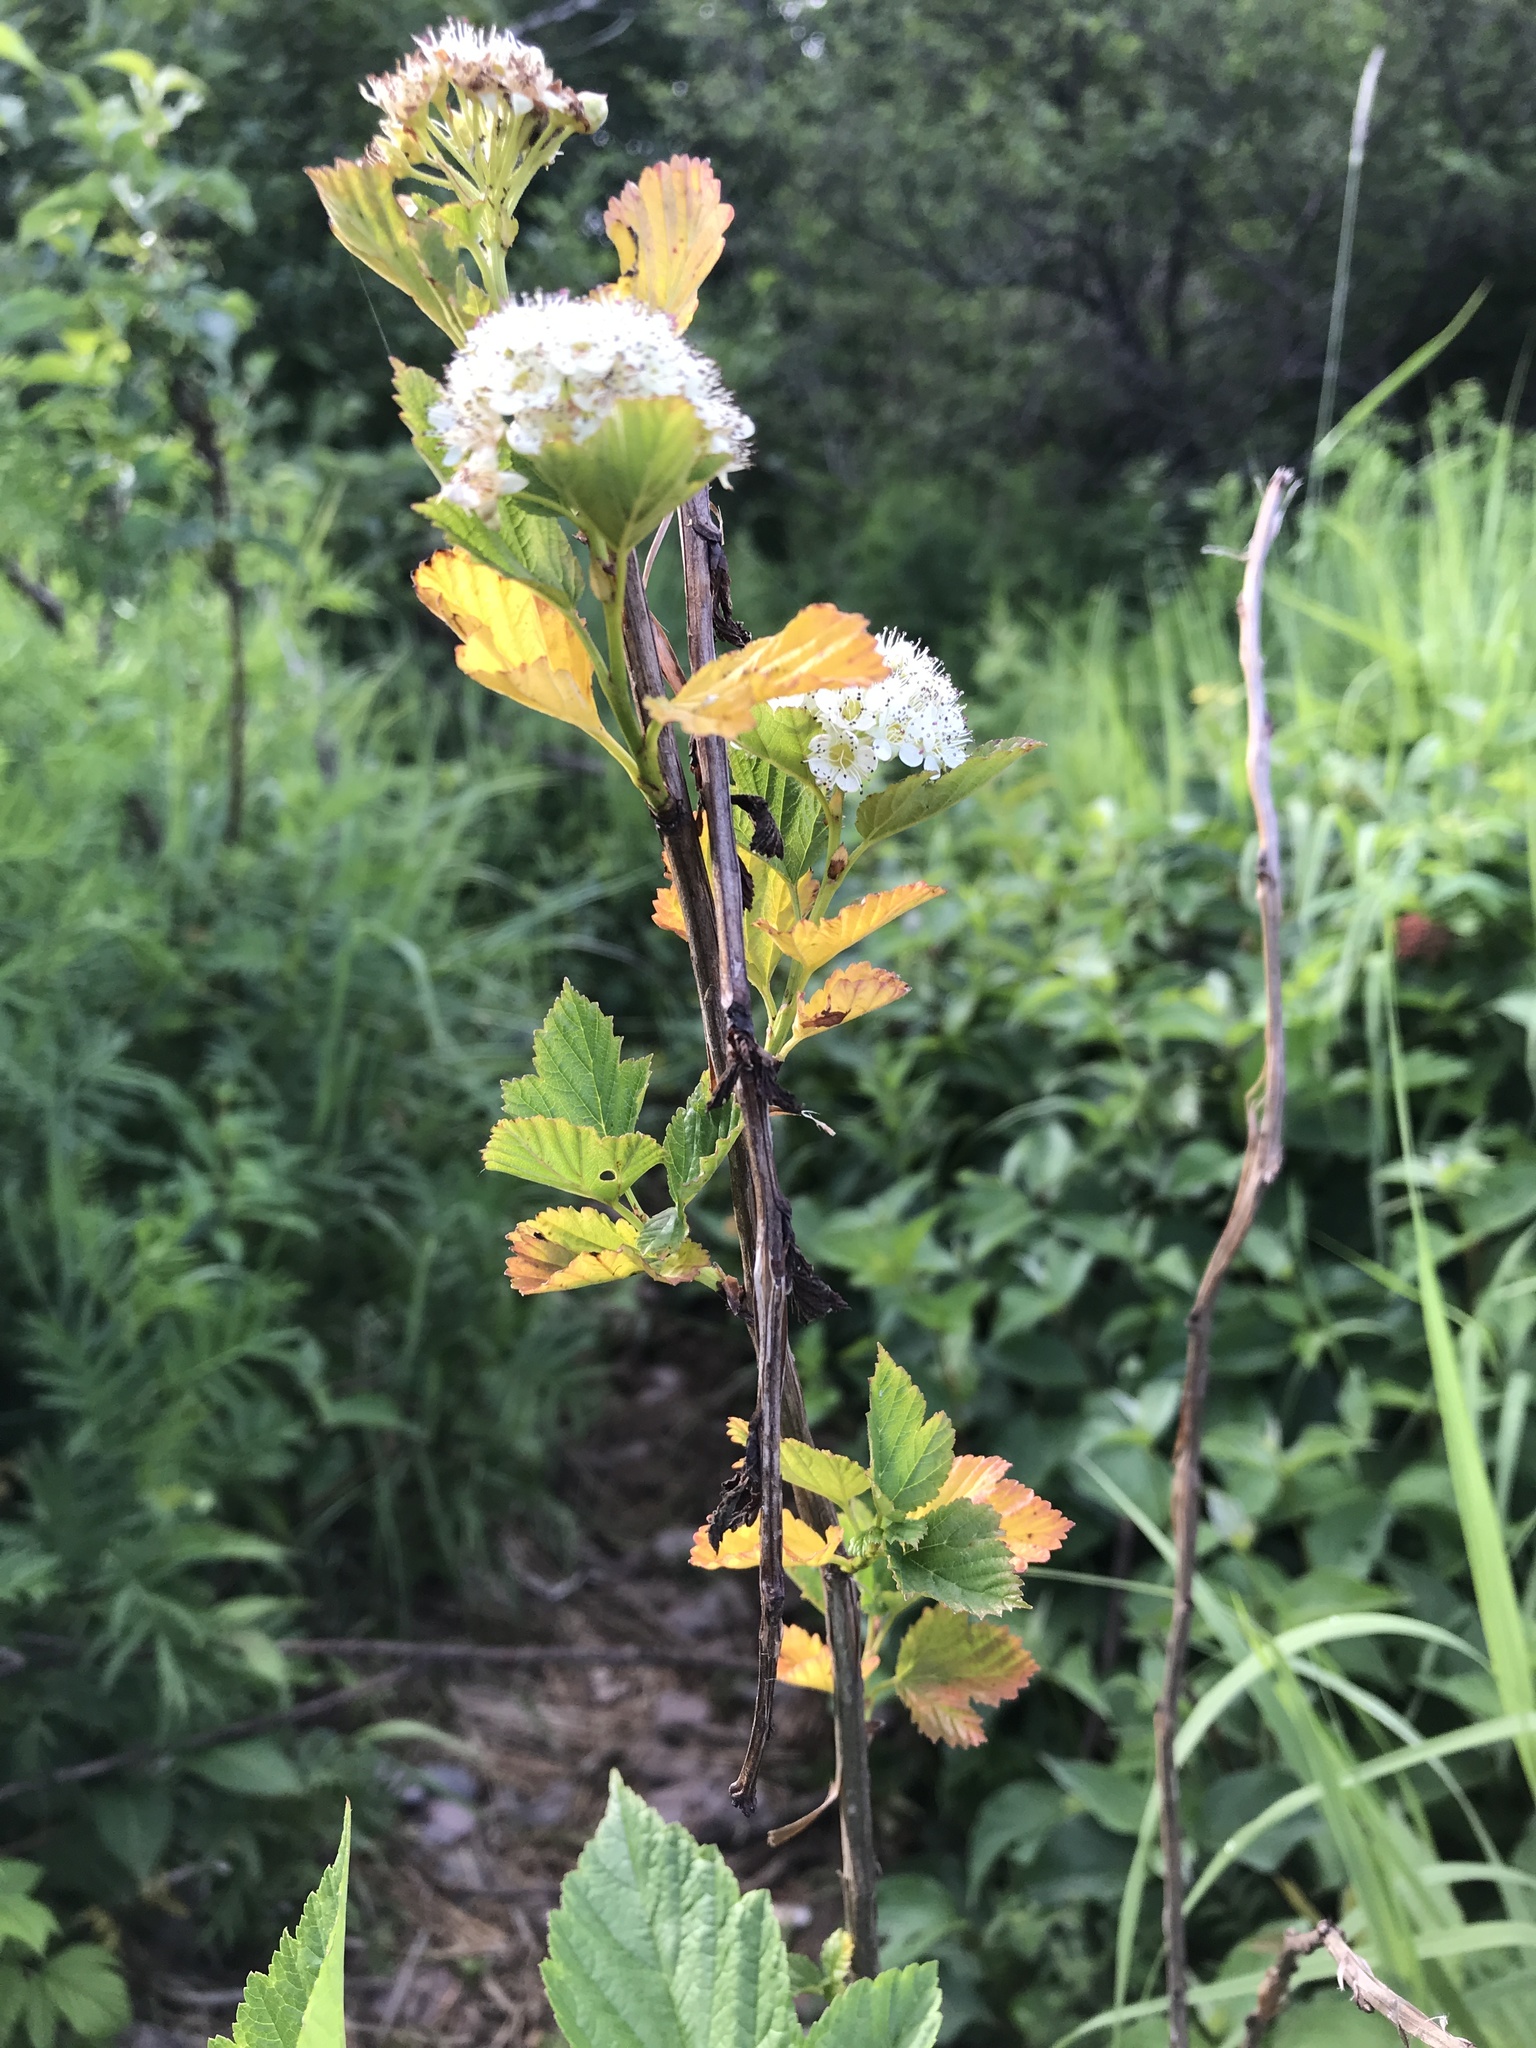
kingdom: Plantae
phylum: Tracheophyta
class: Magnoliopsida
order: Rosales
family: Rosaceae
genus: Physocarpus
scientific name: Physocarpus opulifolius
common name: Ninebark
